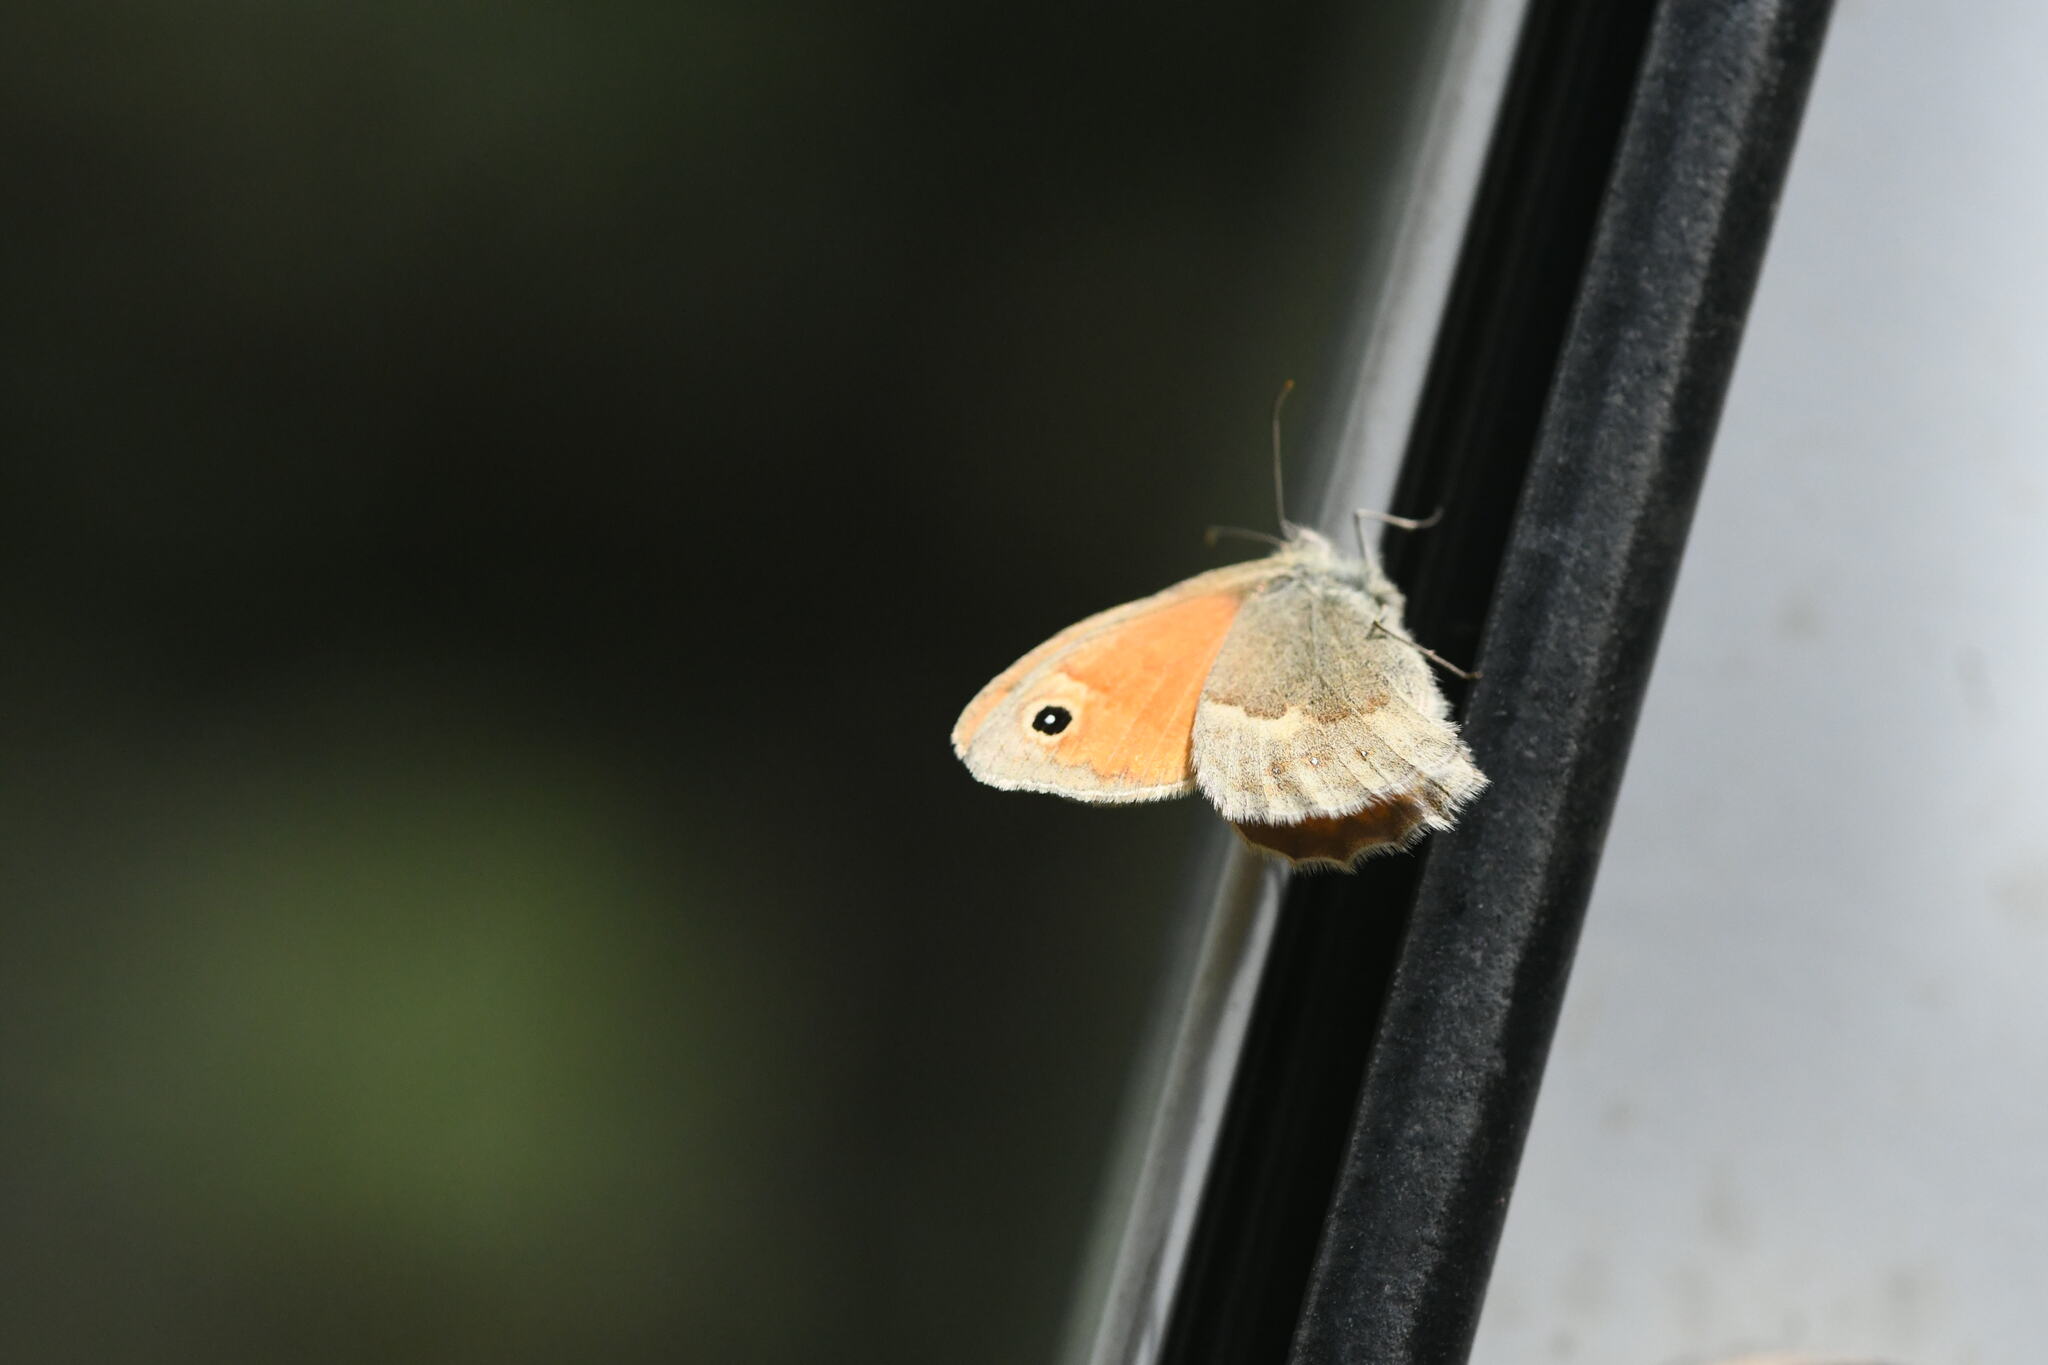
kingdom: Animalia
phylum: Arthropoda
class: Insecta
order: Lepidoptera
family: Nymphalidae
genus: Coenonympha
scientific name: Coenonympha pamphilus
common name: Small heath
